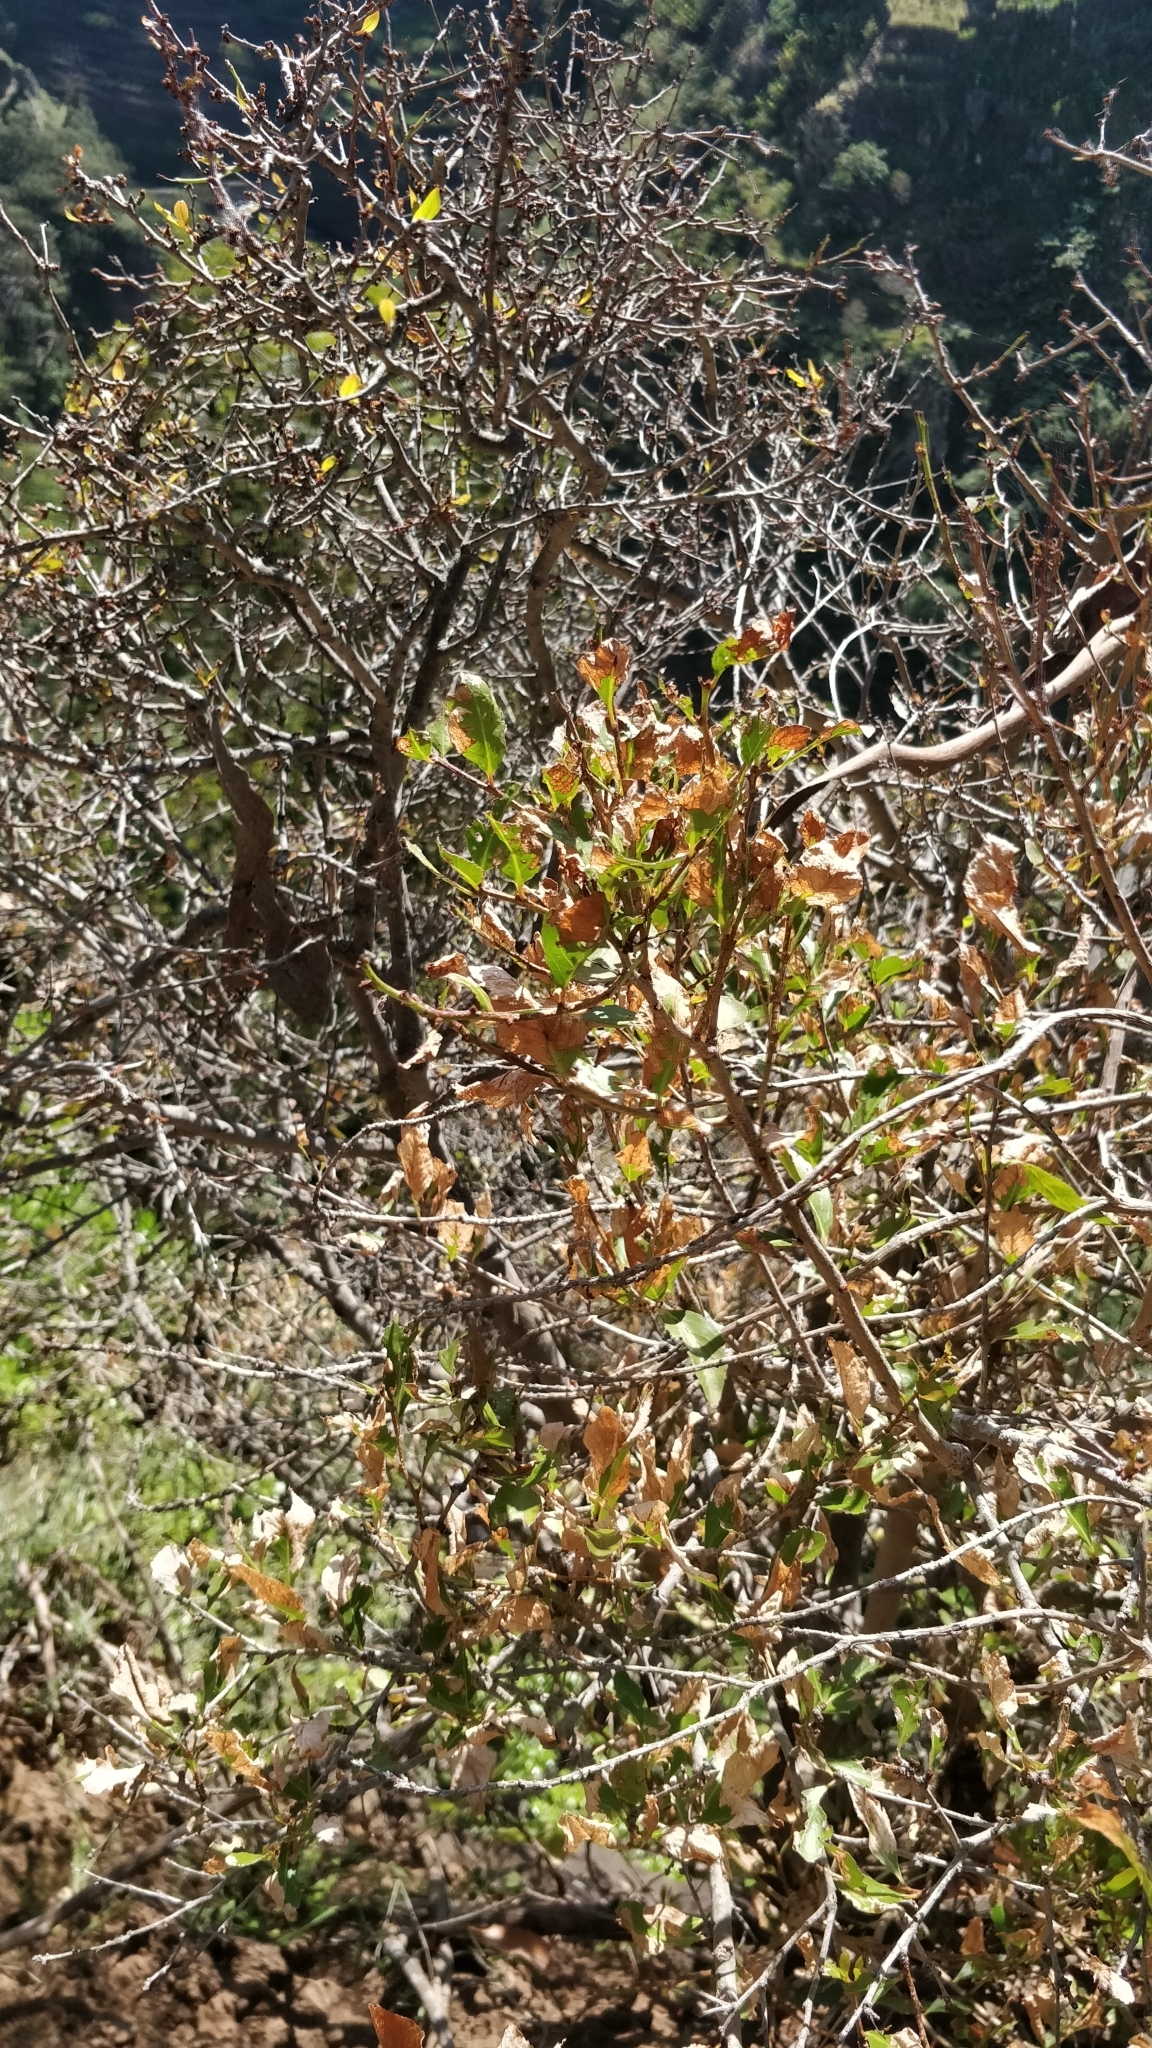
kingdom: Plantae
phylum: Tracheophyta
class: Magnoliopsida
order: Celastrales
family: Celastraceae
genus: Gymnosporia
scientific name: Gymnosporia dryandri
